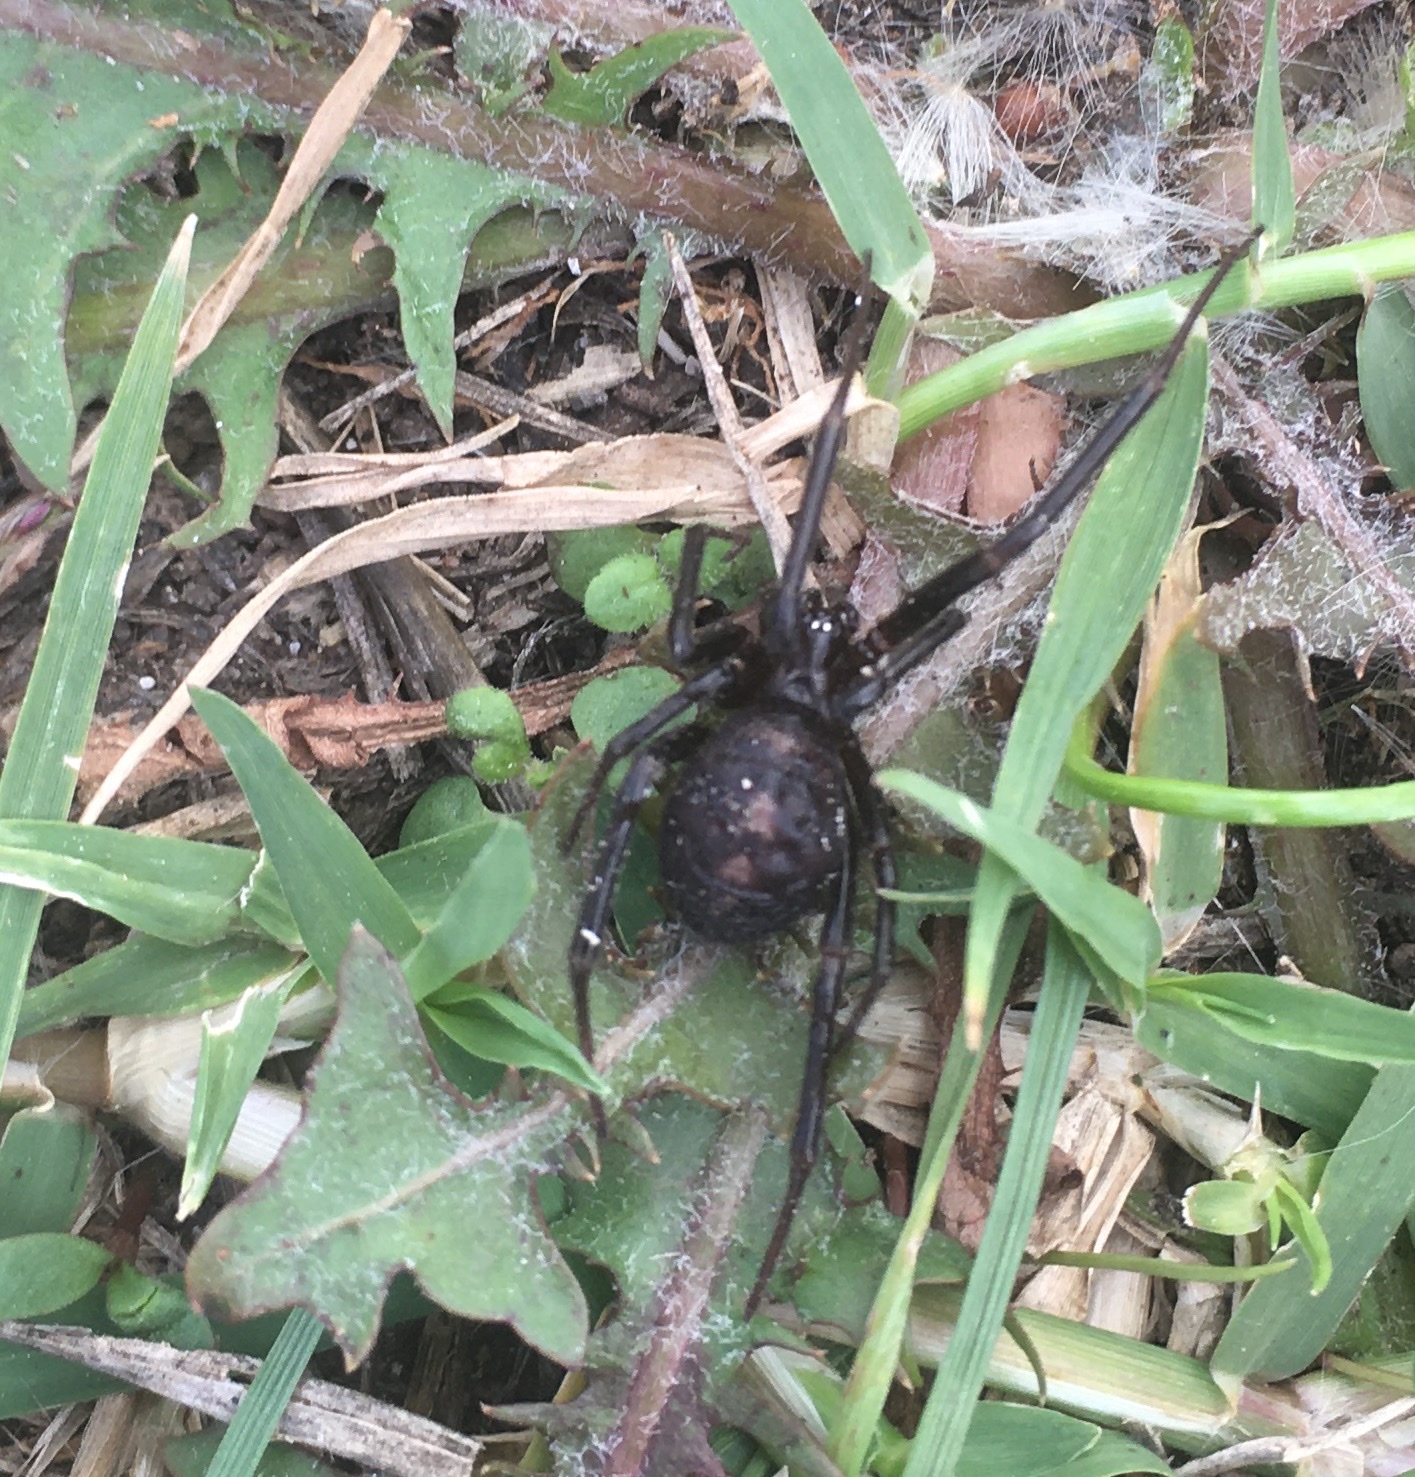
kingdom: Animalia
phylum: Arthropoda
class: Arachnida
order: Araneae
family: Theridiidae
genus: Steatoda
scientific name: Steatoda grossa
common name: False black widow
